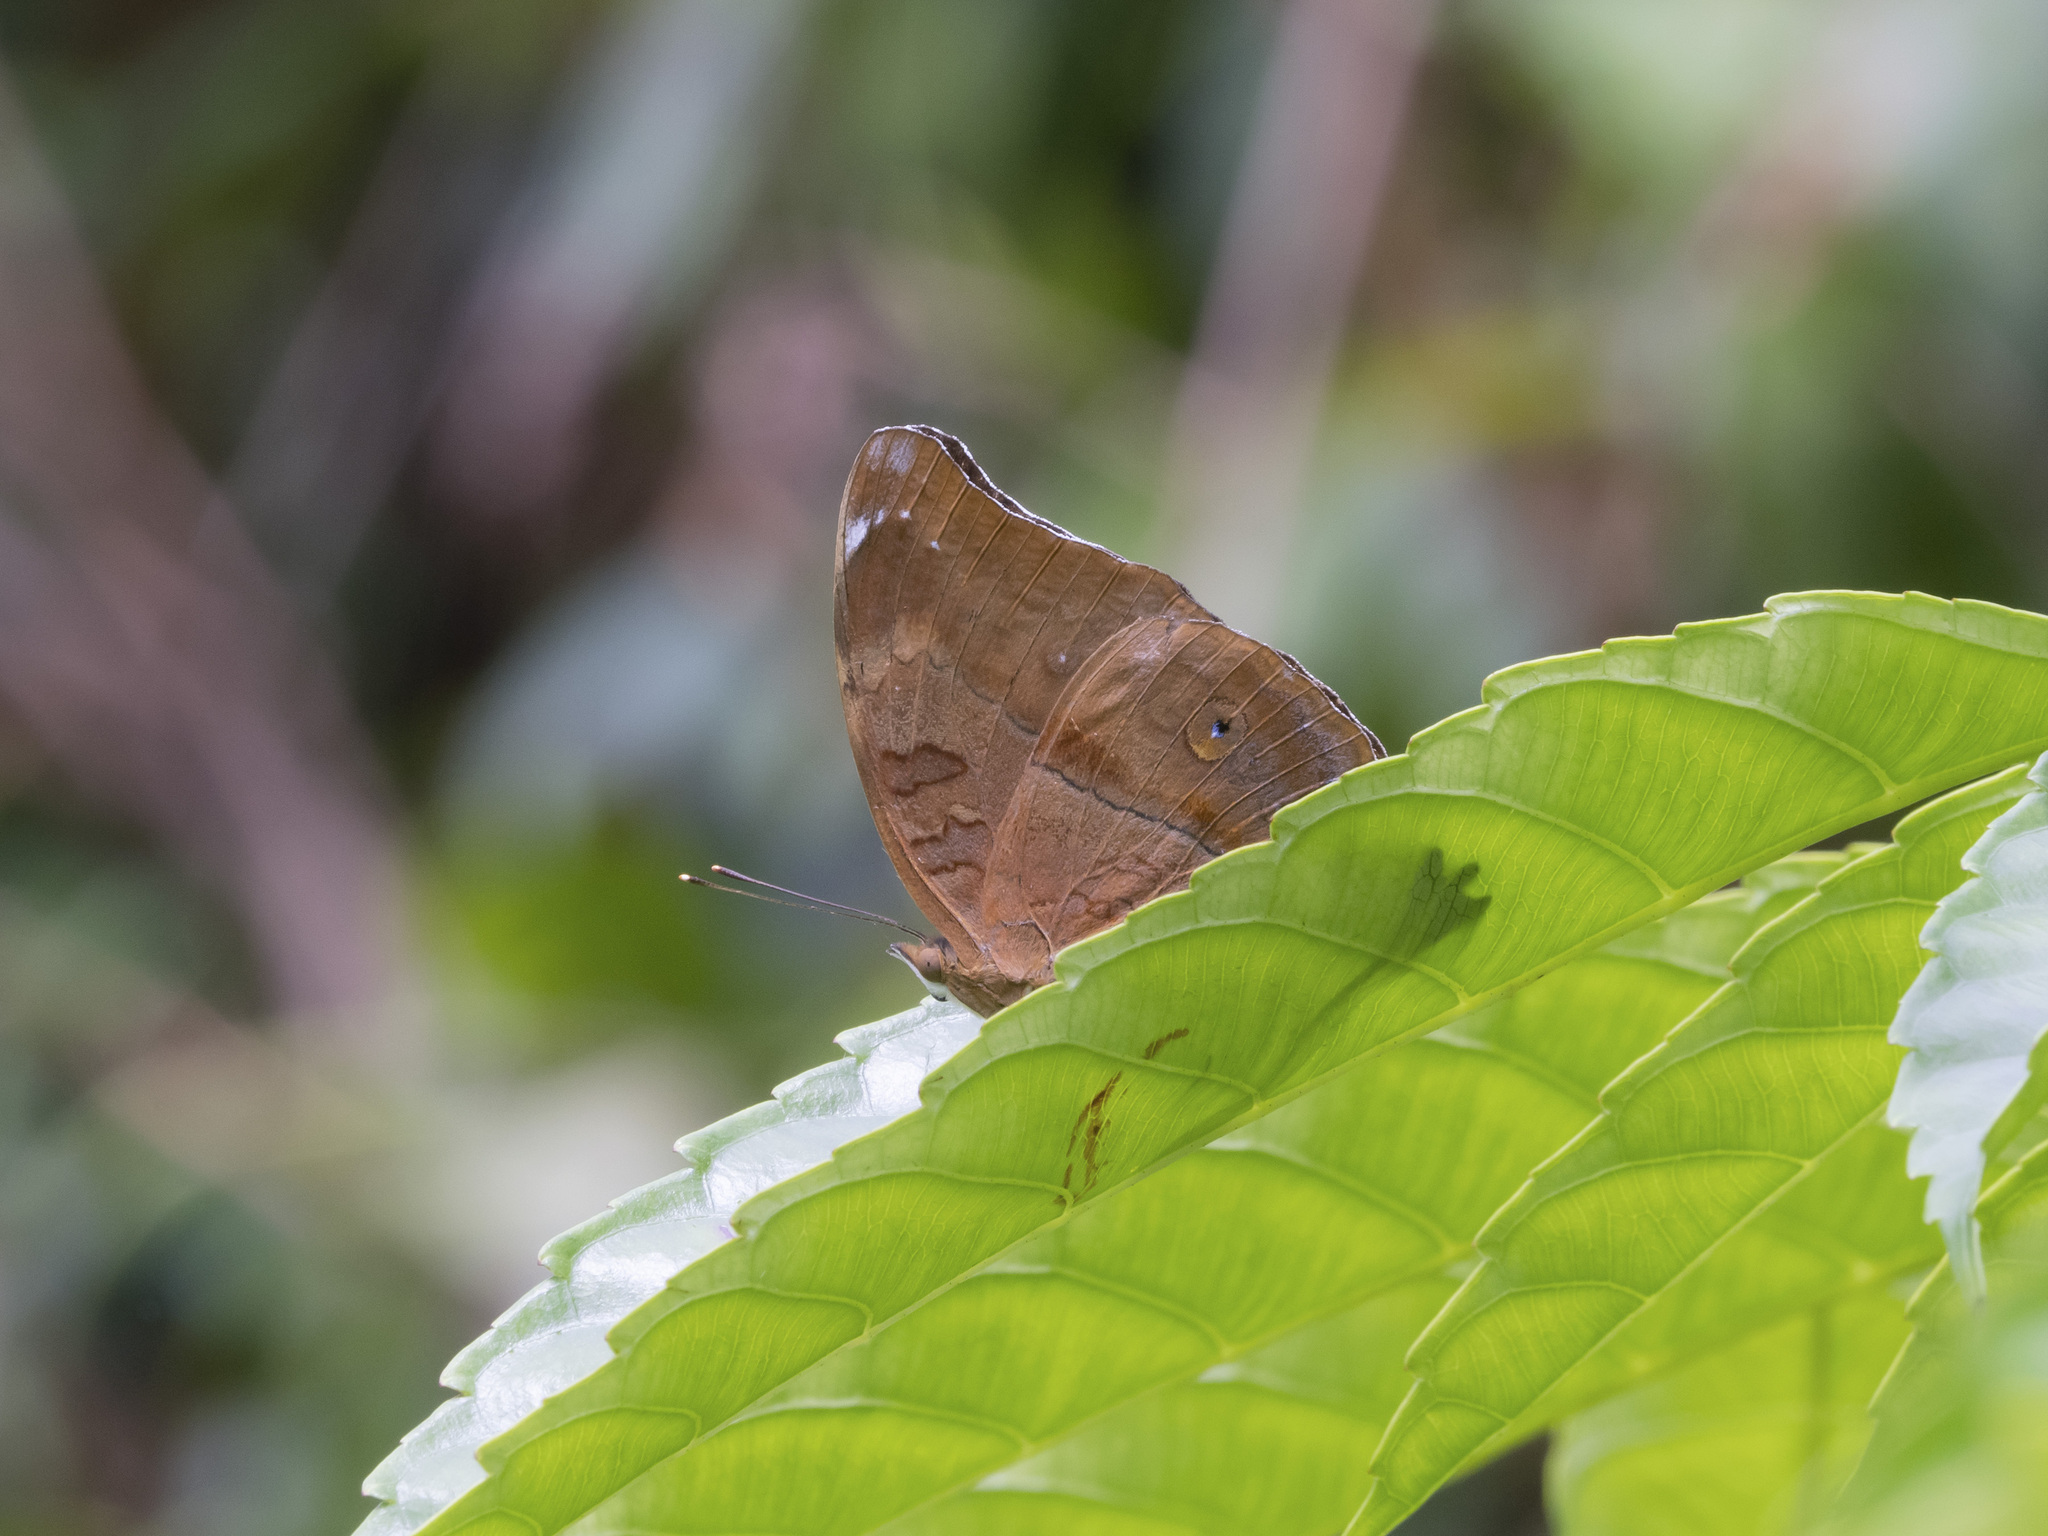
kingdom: Animalia
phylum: Arthropoda
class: Insecta
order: Lepidoptera
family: Nymphalidae
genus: Doleschallia
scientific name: Doleschallia bisaltide
